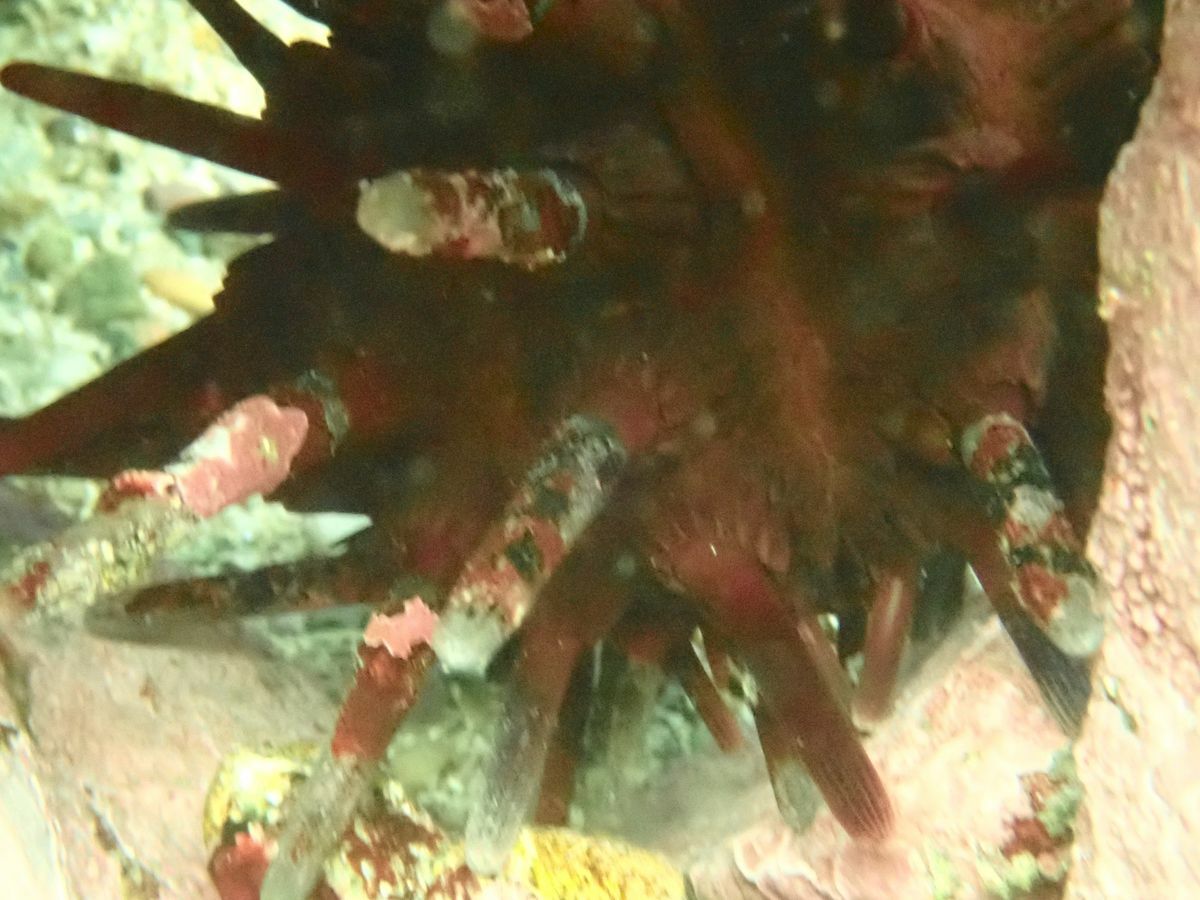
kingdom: Animalia
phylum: Echinodermata
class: Echinoidea
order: Cidaroida
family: Cidaridae
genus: Phyllacanthus
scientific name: Phyllacanthus parvispinus
